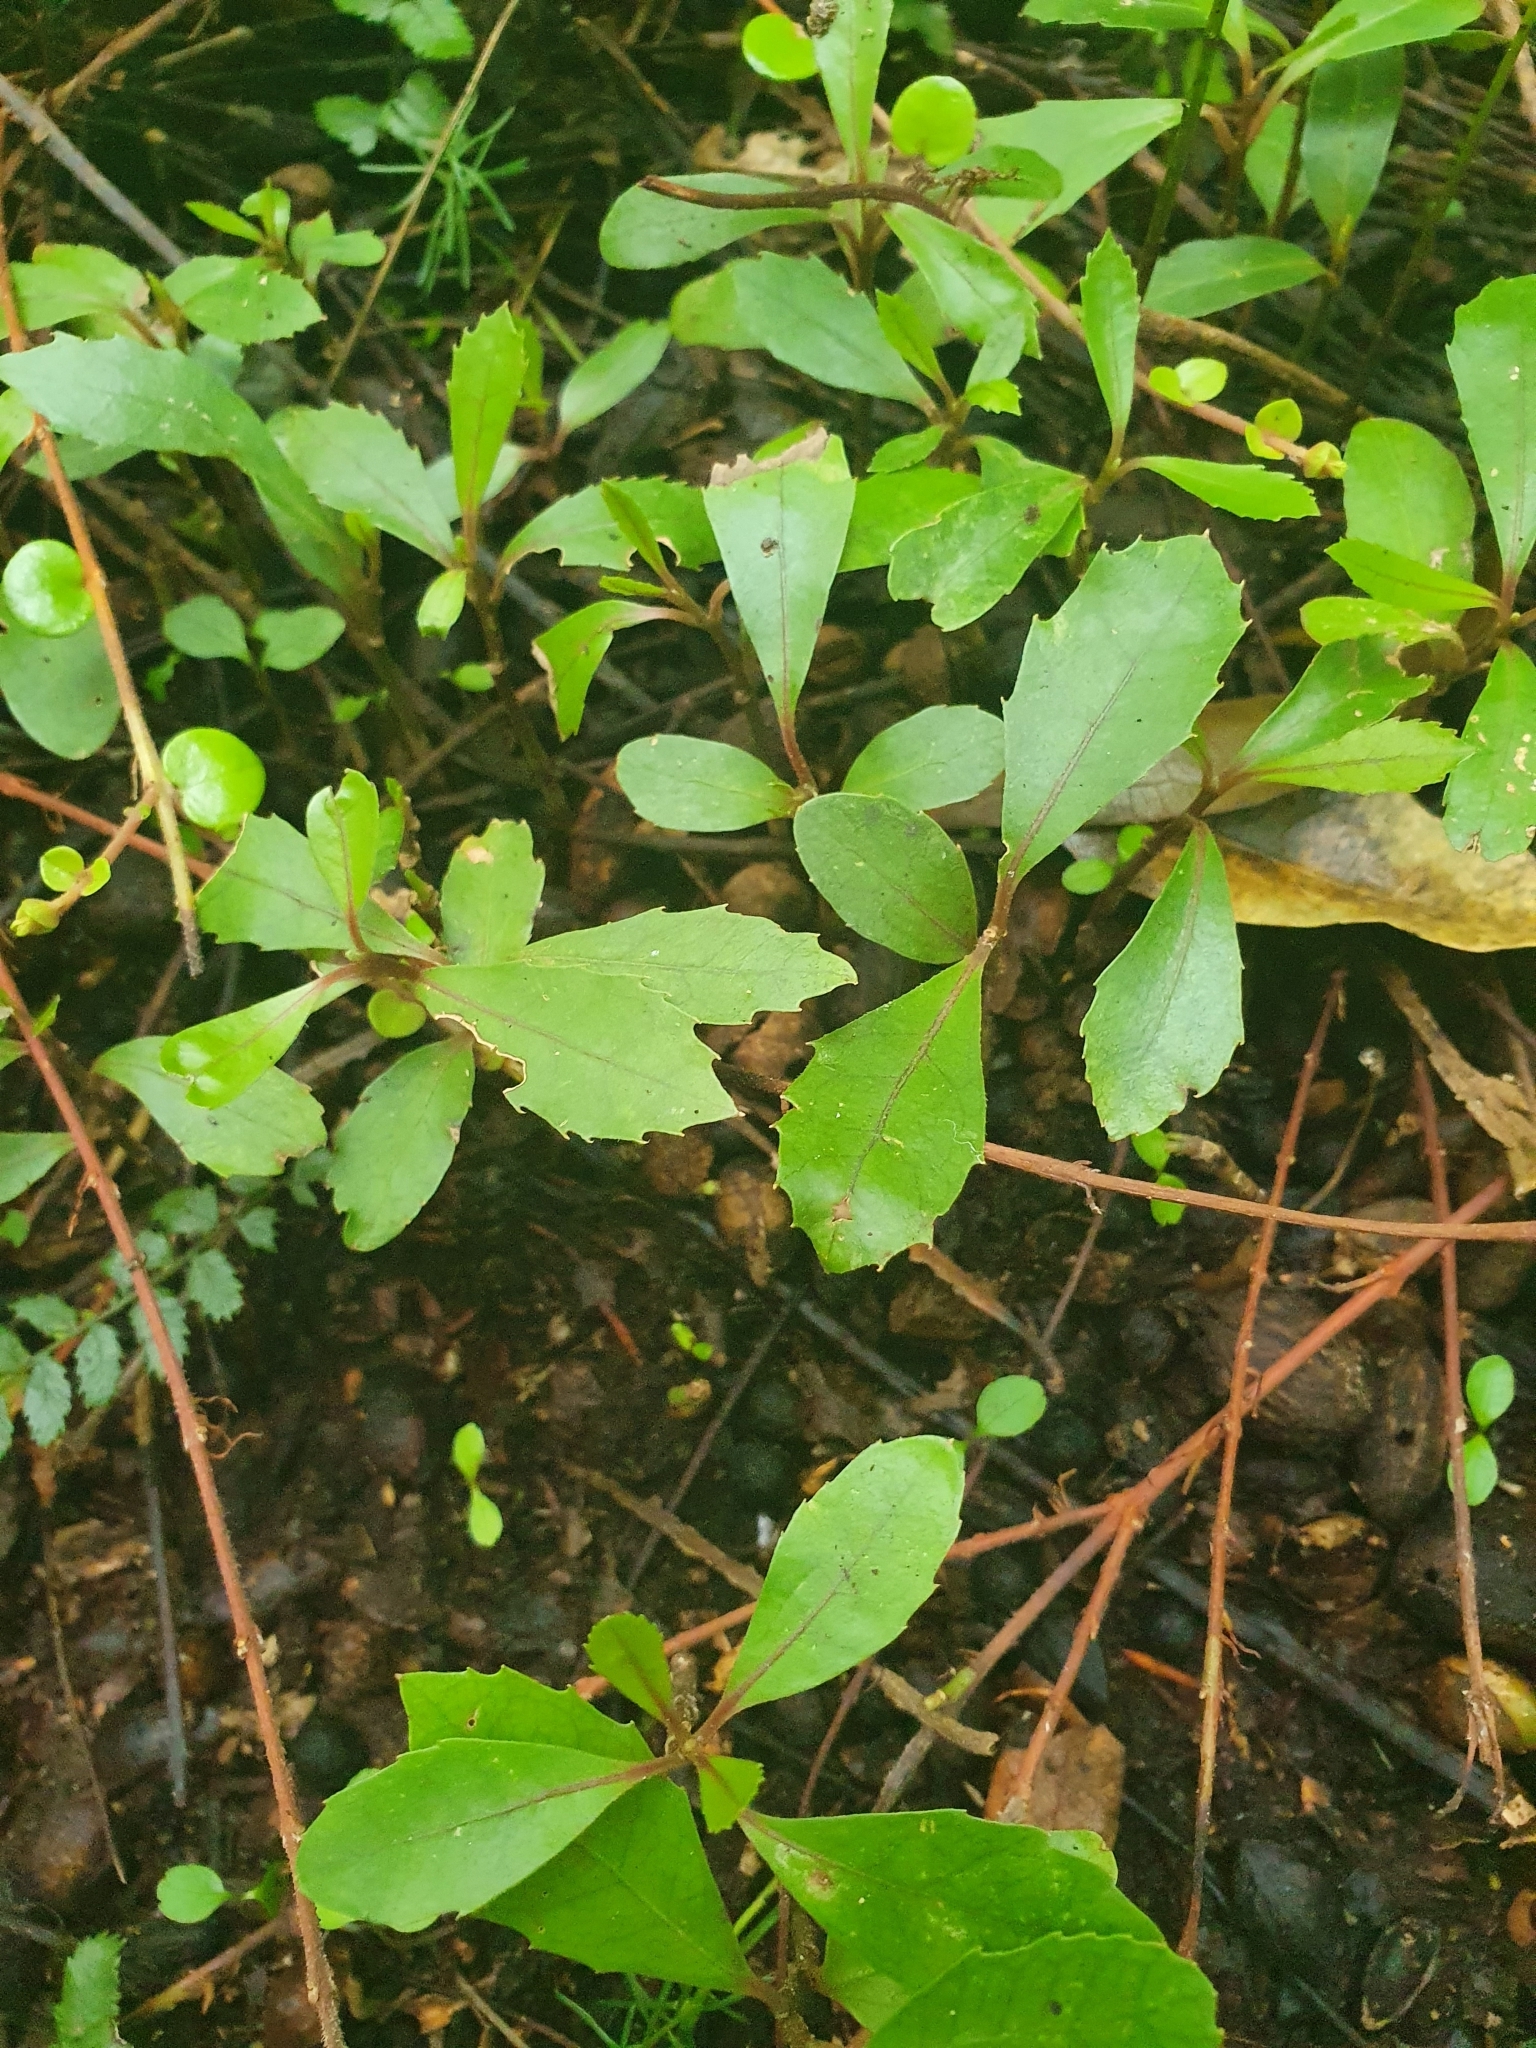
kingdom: Plantae
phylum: Tracheophyta
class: Magnoliopsida
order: Laurales
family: Monimiaceae
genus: Hedycarya
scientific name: Hedycarya arborea
